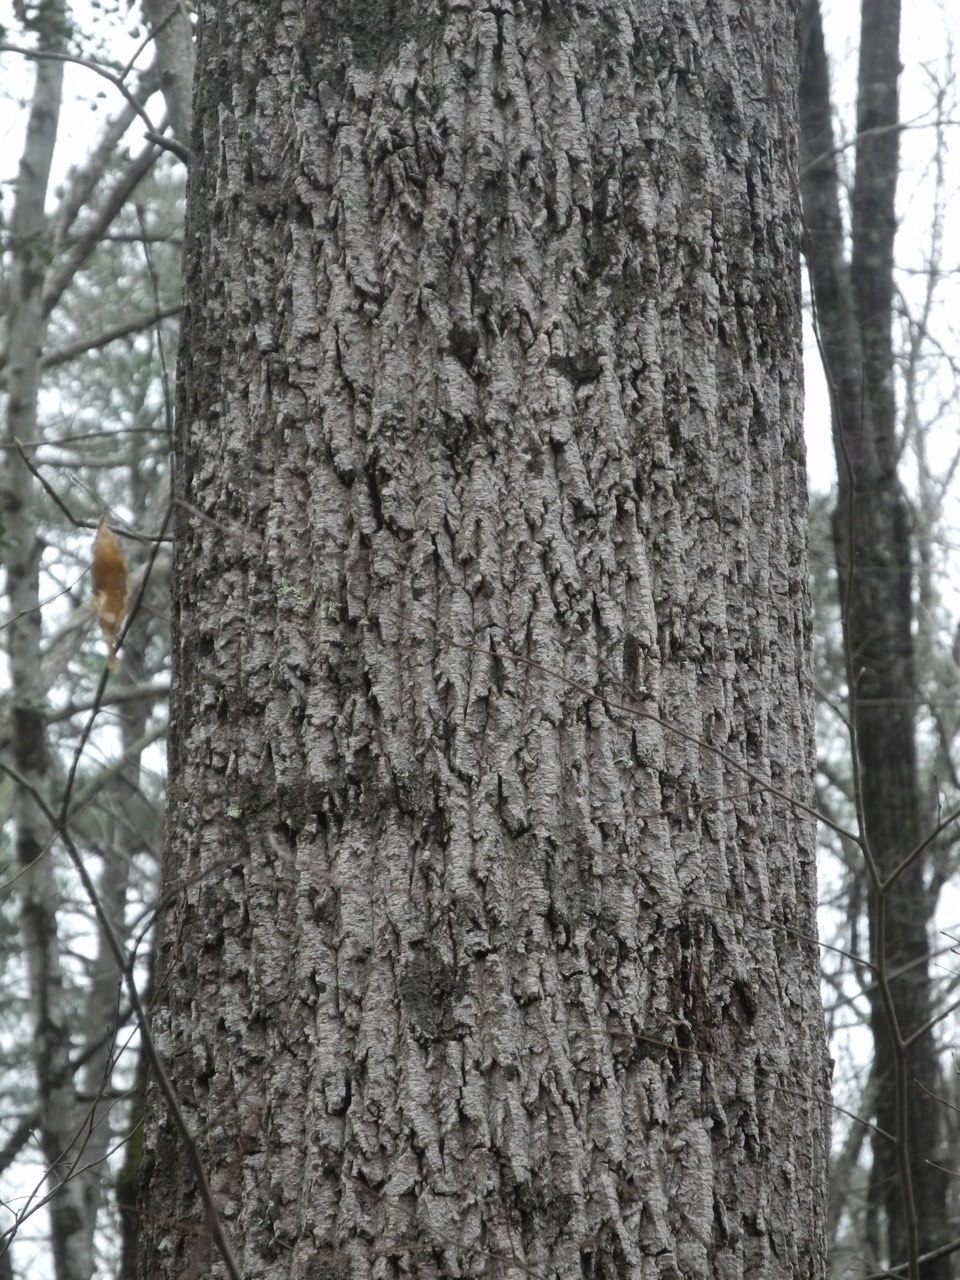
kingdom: Plantae
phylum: Tracheophyta
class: Magnoliopsida
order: Magnoliales
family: Magnoliaceae
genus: Liriodendron
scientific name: Liriodendron tulipifera
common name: Tulip tree
